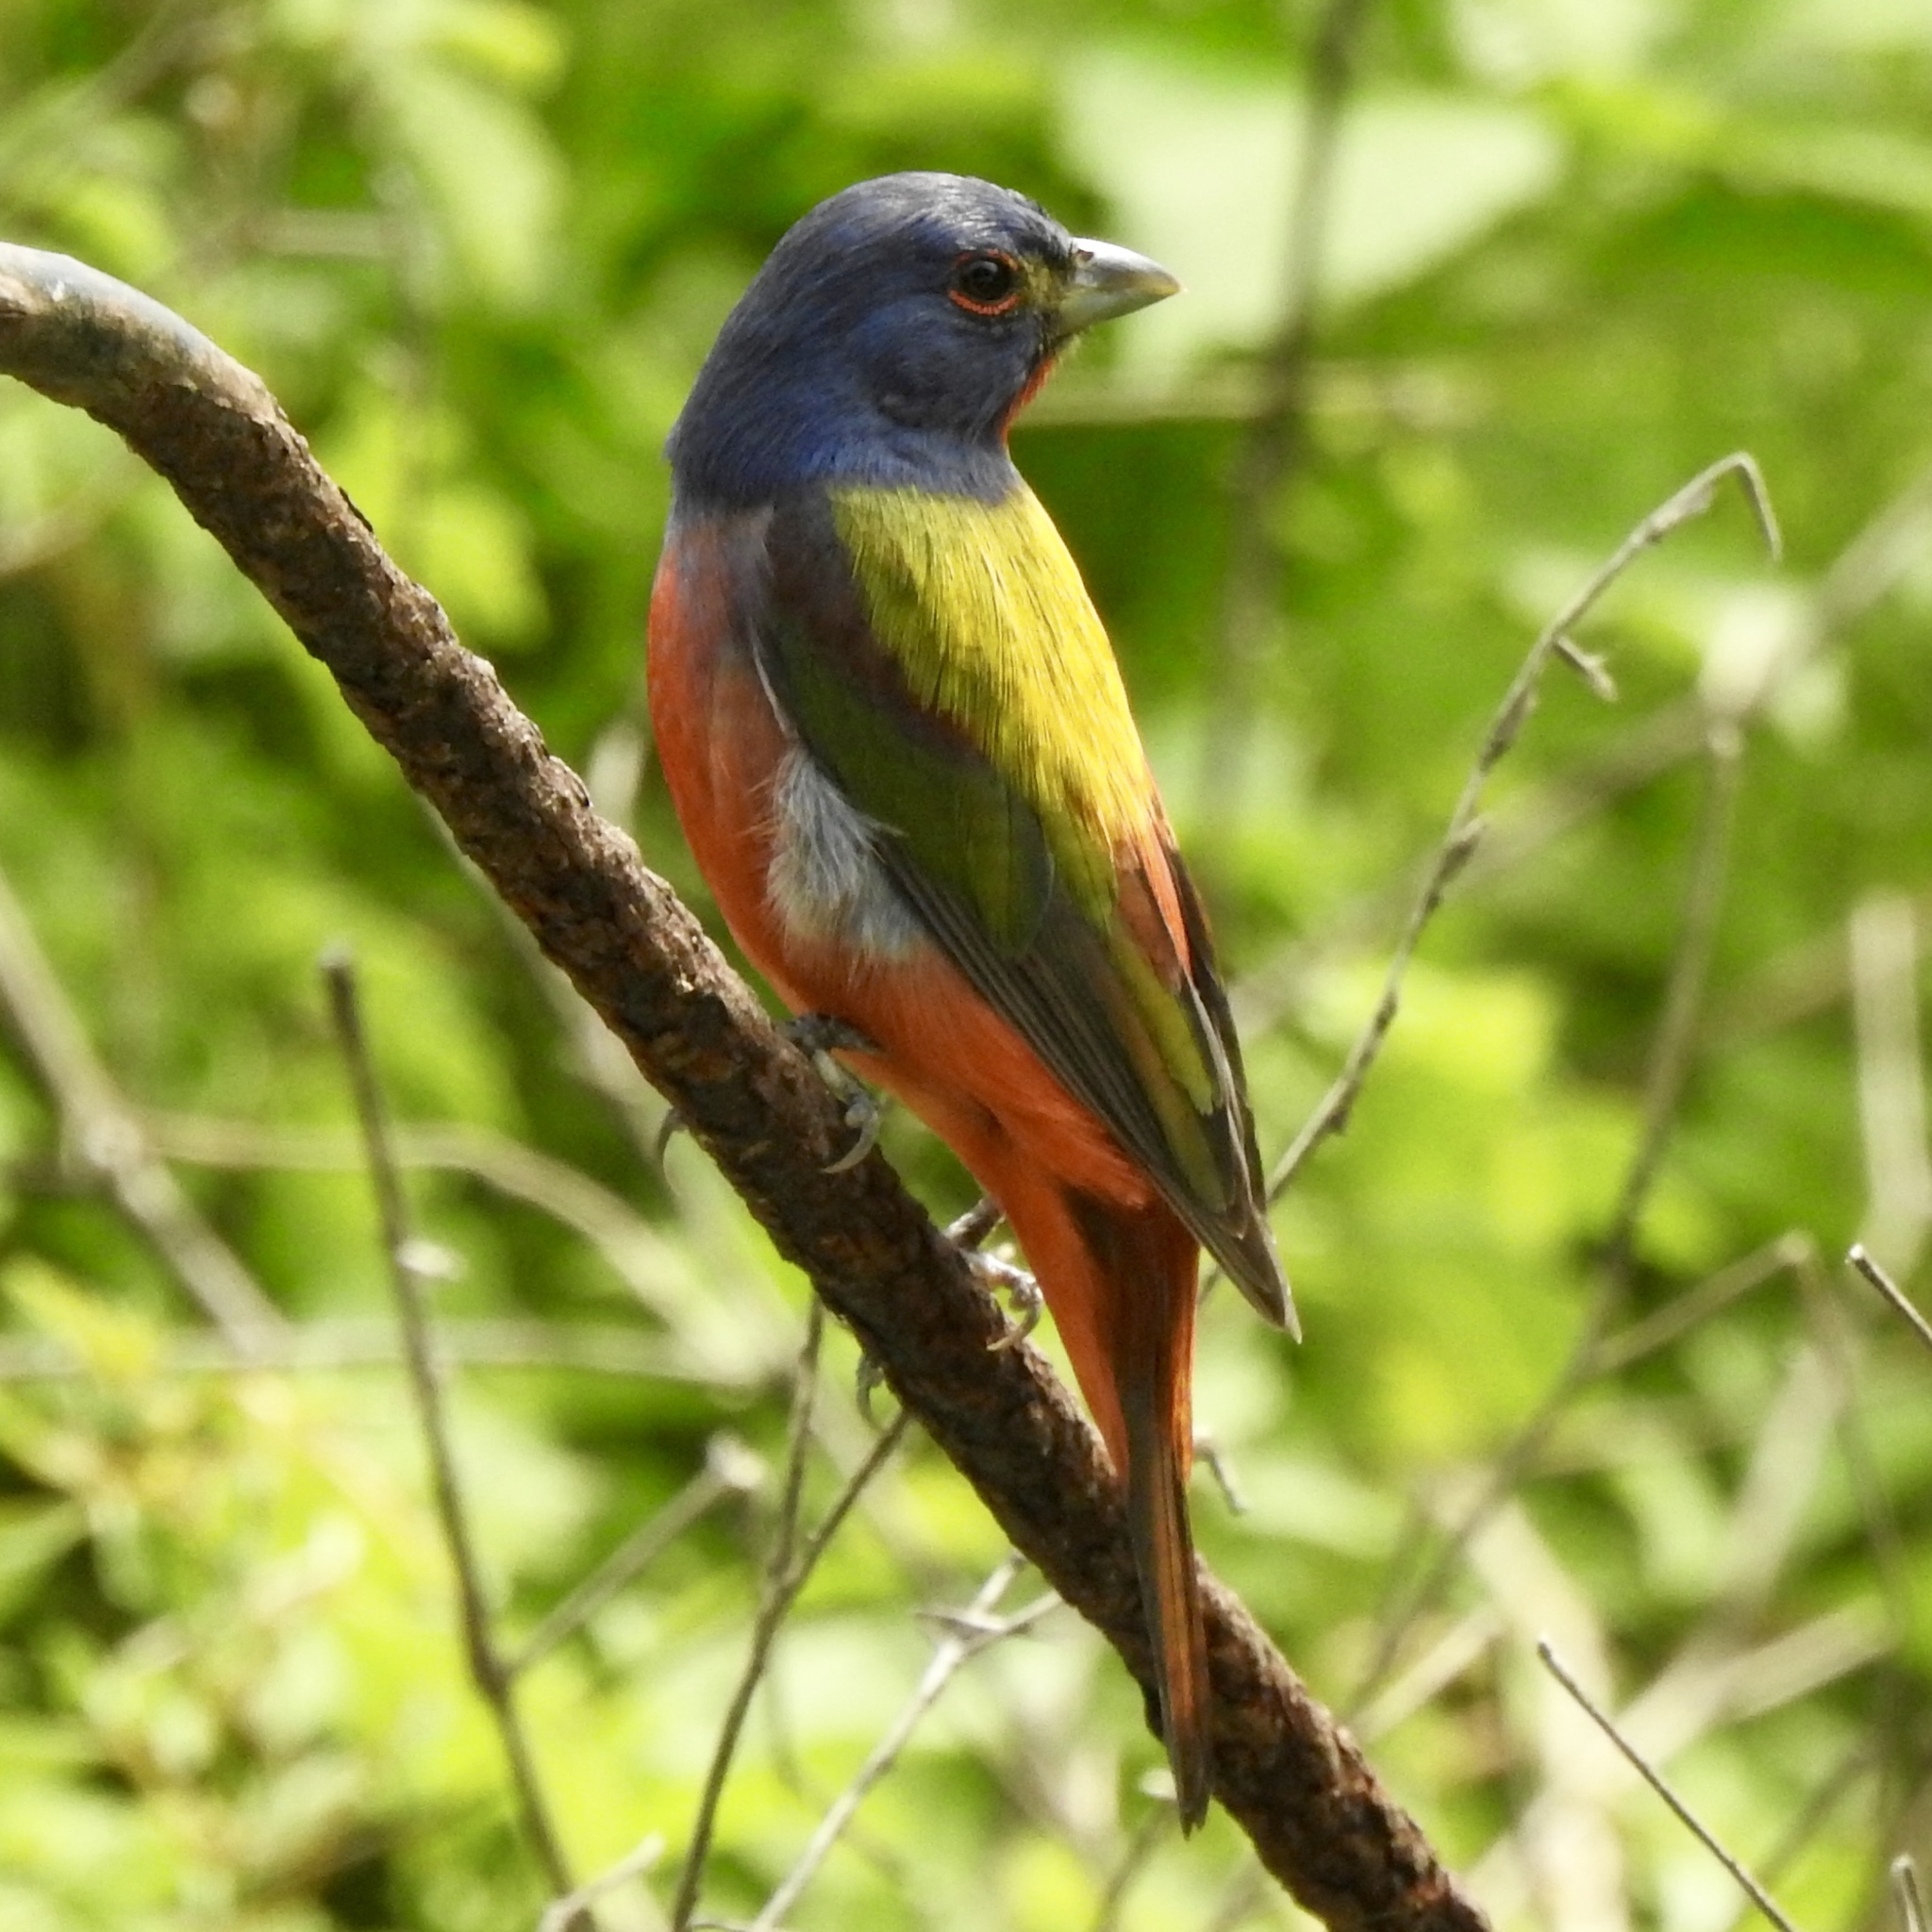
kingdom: Animalia
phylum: Chordata
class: Aves
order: Passeriformes
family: Cardinalidae
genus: Passerina
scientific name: Passerina ciris
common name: Painted bunting
